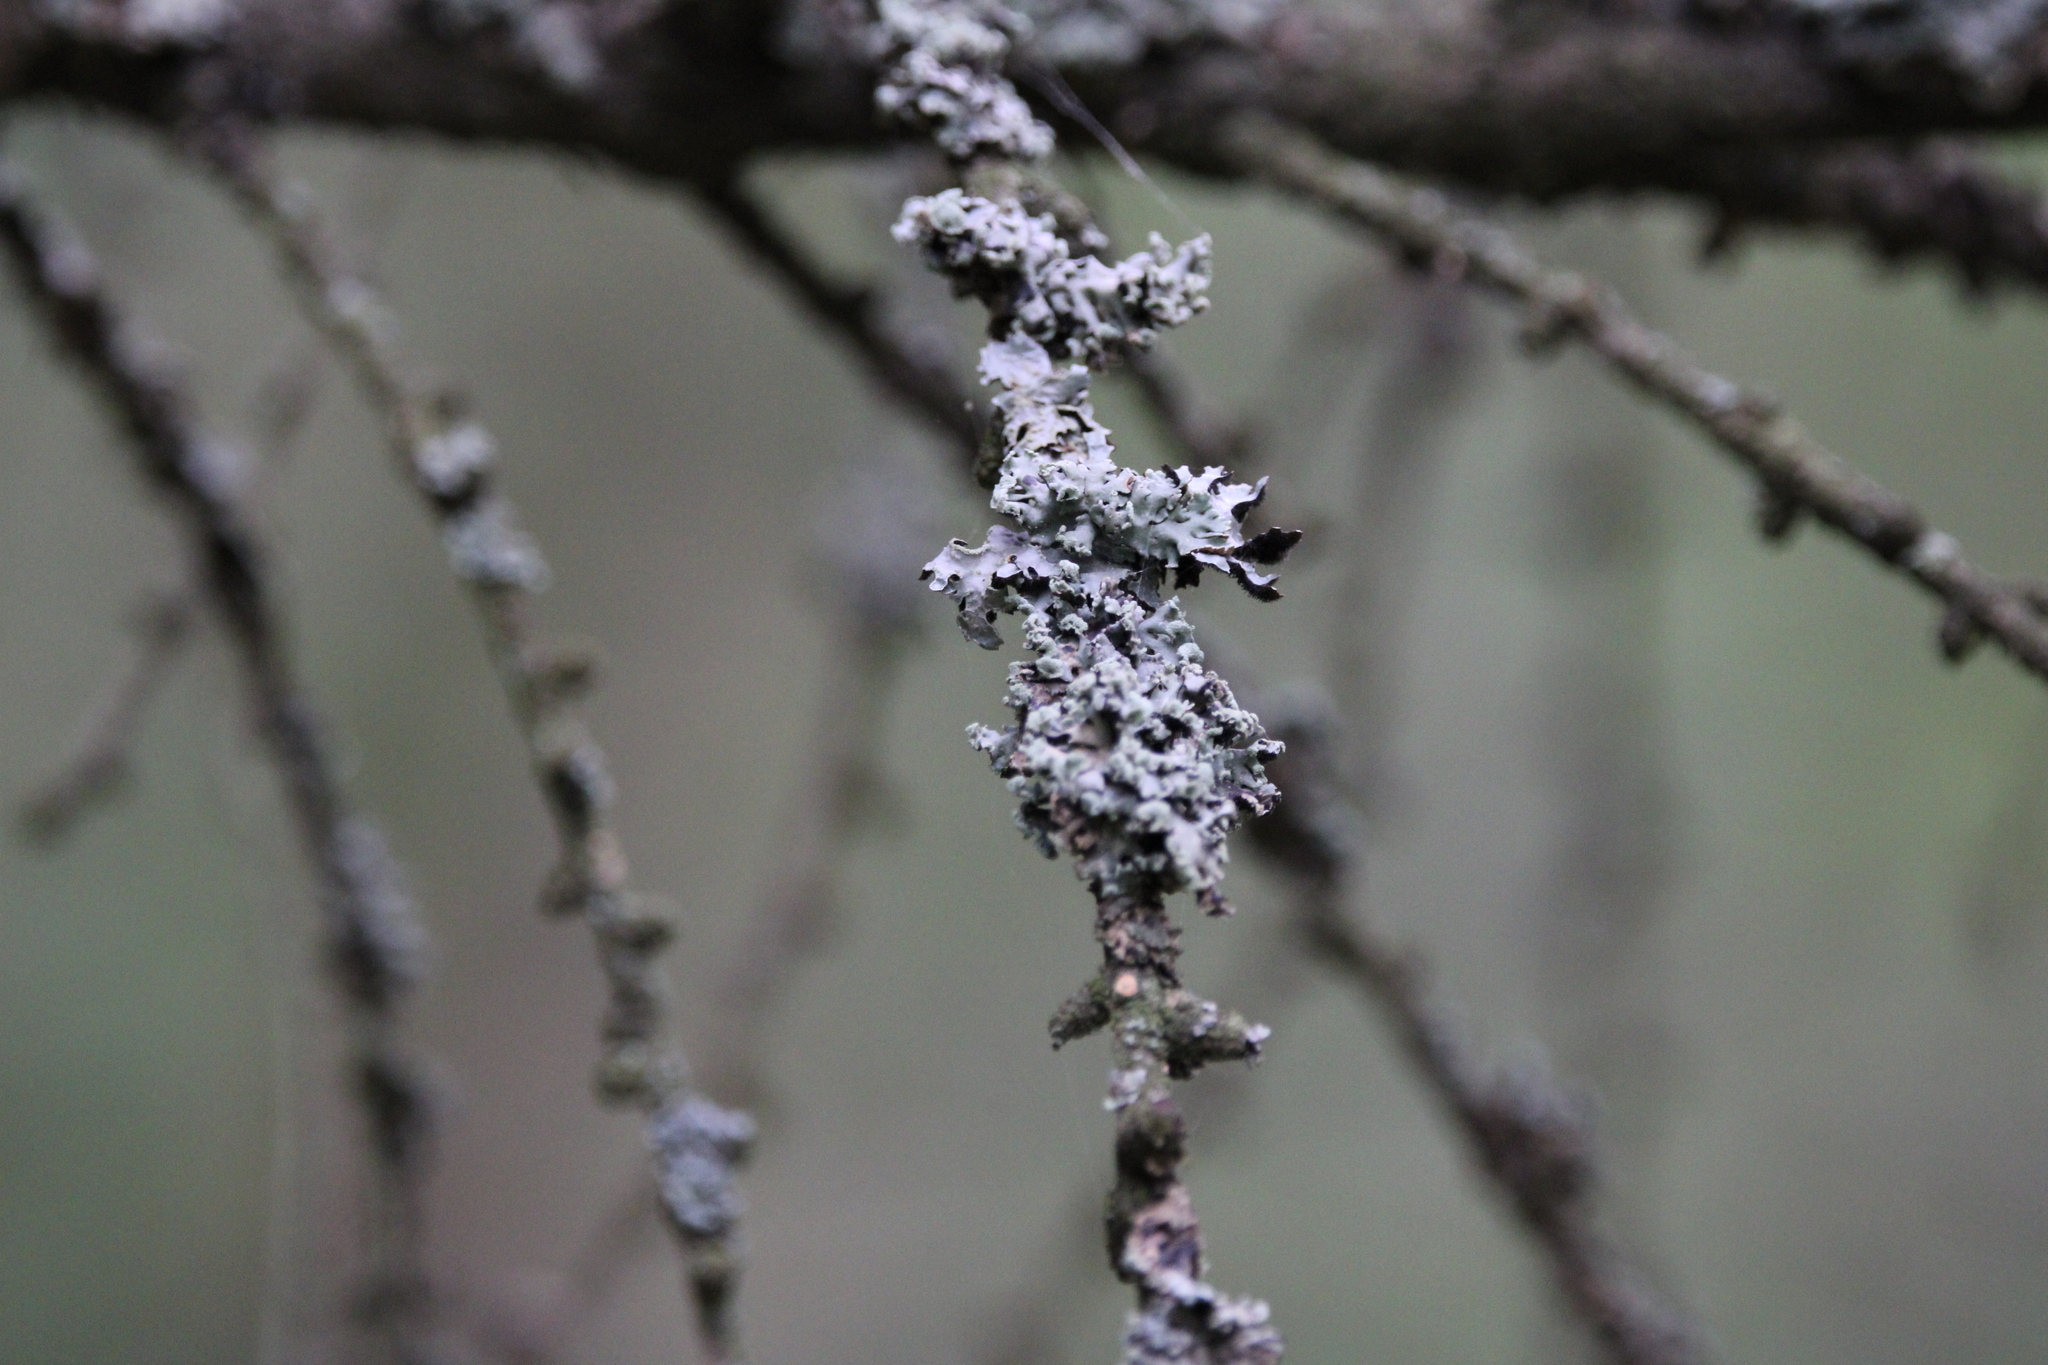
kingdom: Fungi
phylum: Ascomycota
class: Lecanoromycetes
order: Lecanorales
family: Parmeliaceae
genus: Hypogymnia
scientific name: Hypogymnia physodes
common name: Dark crottle
